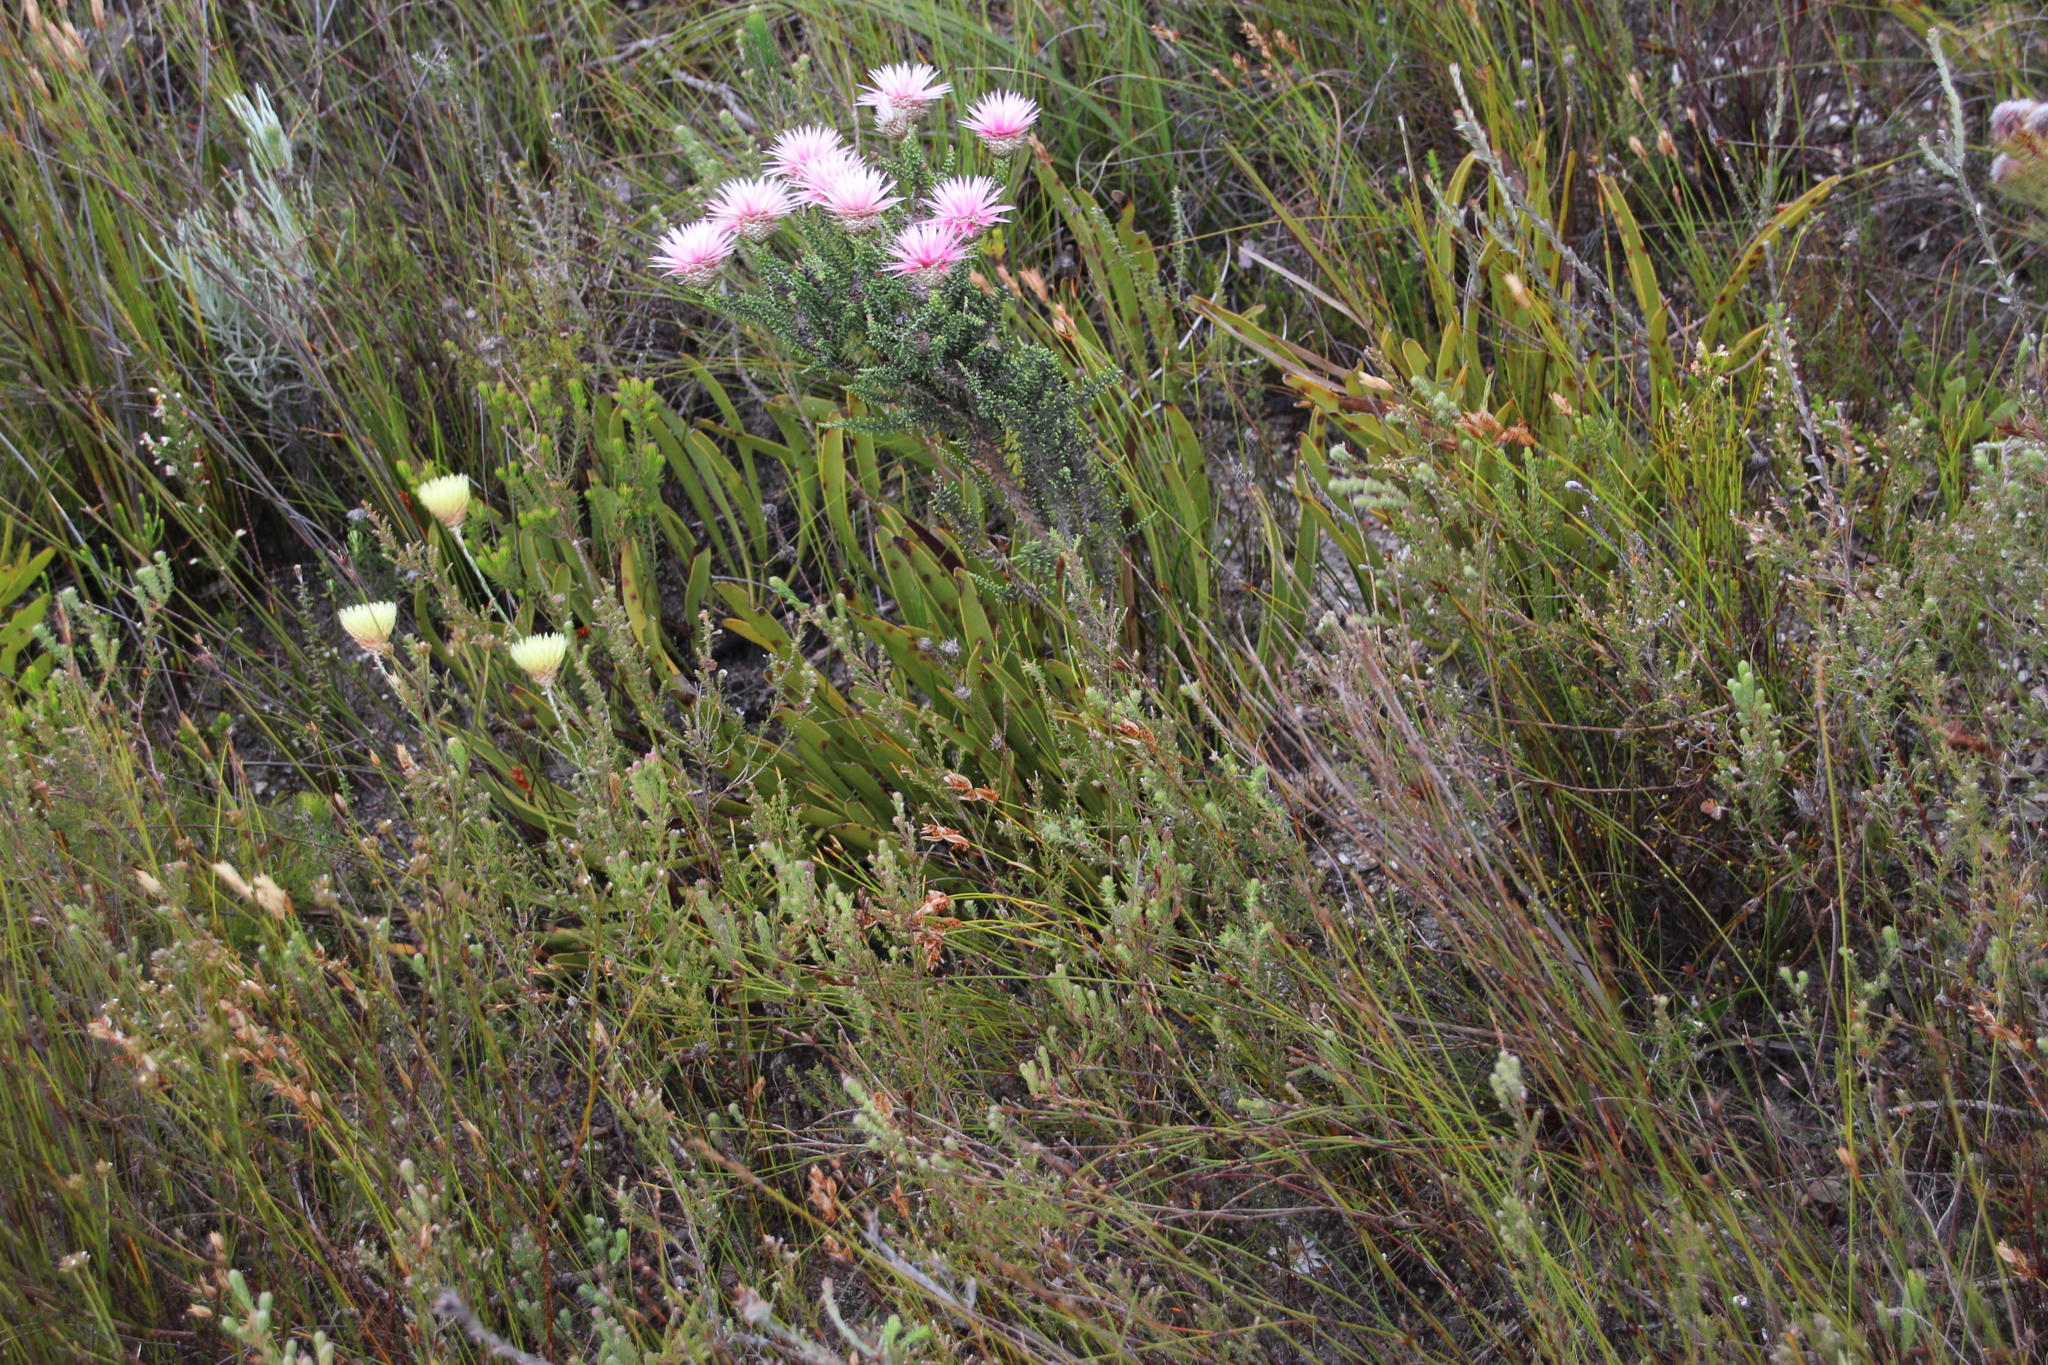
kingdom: Plantae
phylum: Tracheophyta
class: Magnoliopsida
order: Proteales
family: Proteaceae
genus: Protea
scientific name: Protea scabra
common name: Sandpaper-leaf sugarbush
